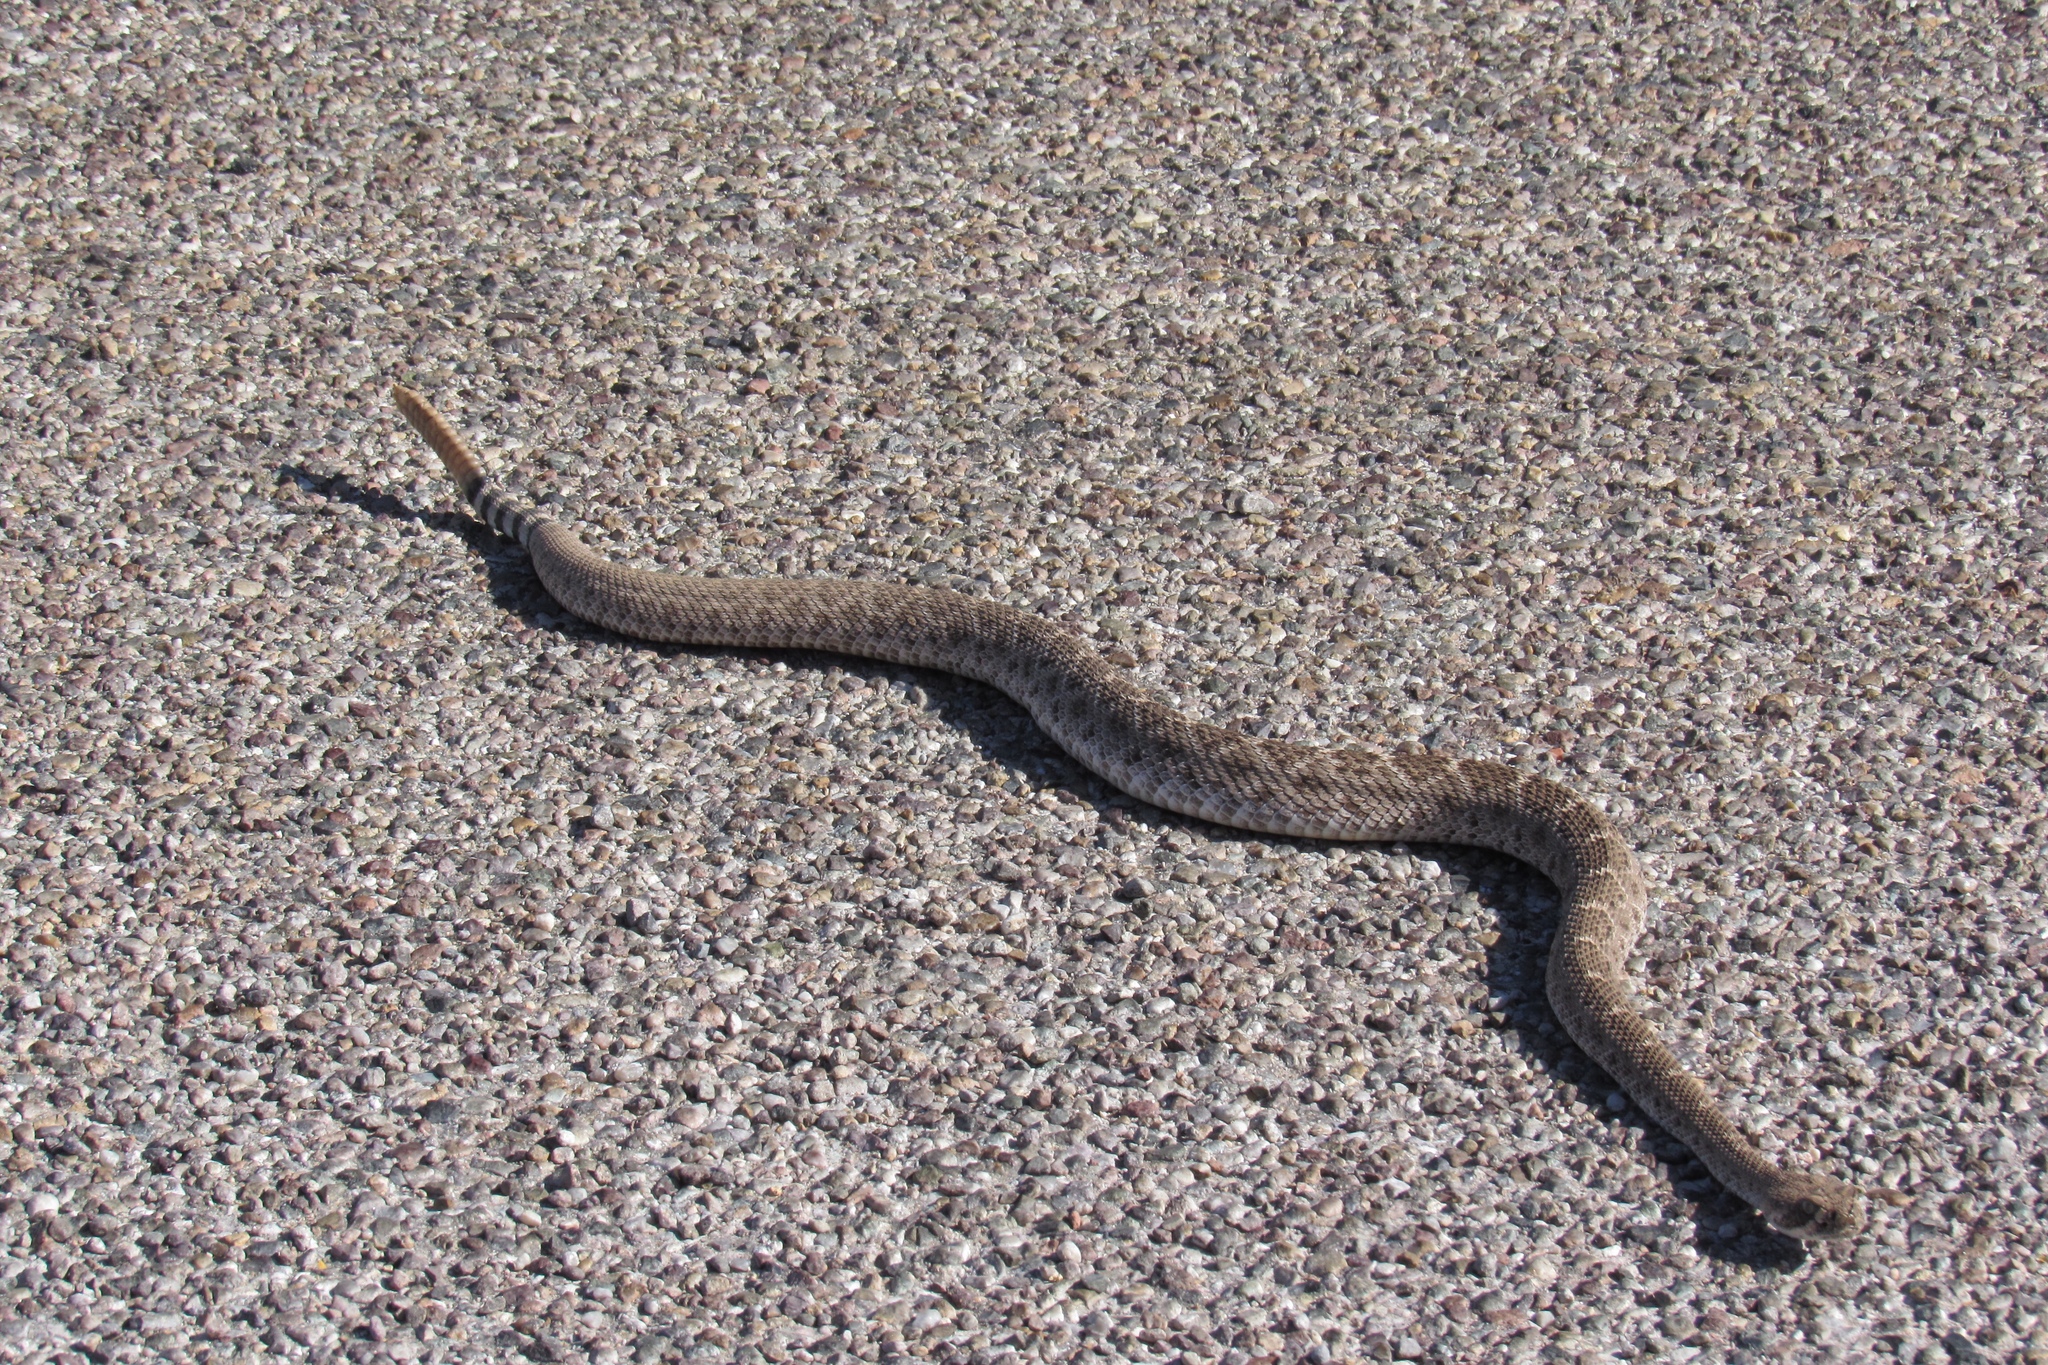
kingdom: Animalia
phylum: Chordata
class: Squamata
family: Viperidae
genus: Crotalus
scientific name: Crotalus atrox
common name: Western diamond-backed rattlesnake
